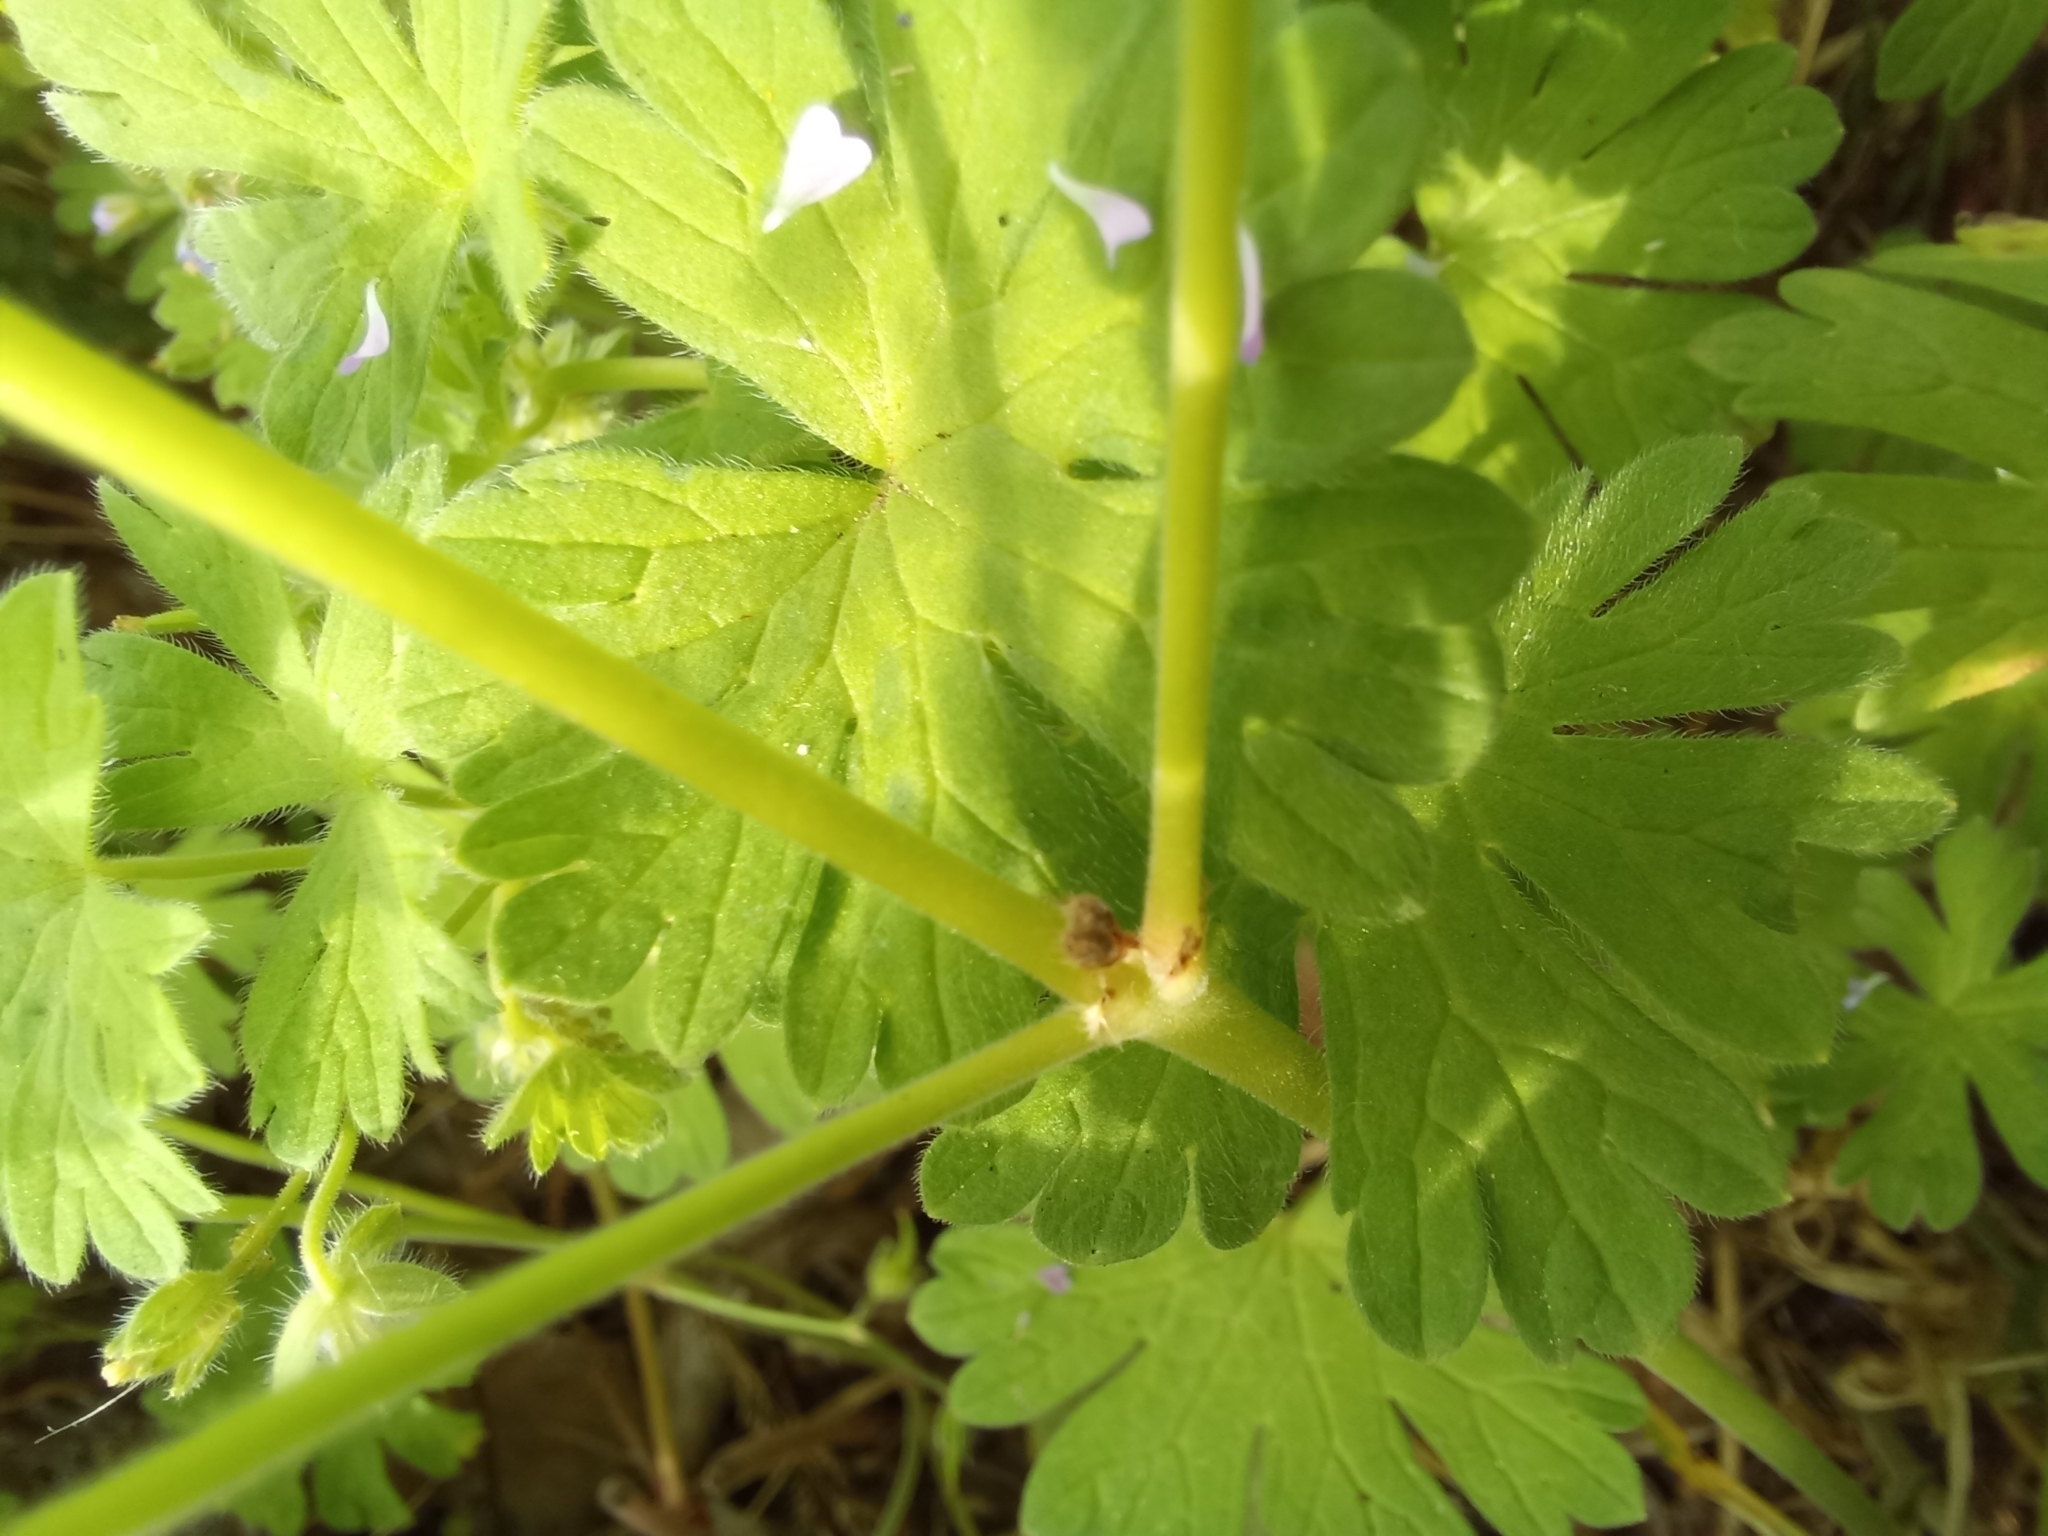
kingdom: Plantae
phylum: Tracheophyta
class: Magnoliopsida
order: Geraniales
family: Geraniaceae
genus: Geranium
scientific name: Geranium pusillum
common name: Small geranium
